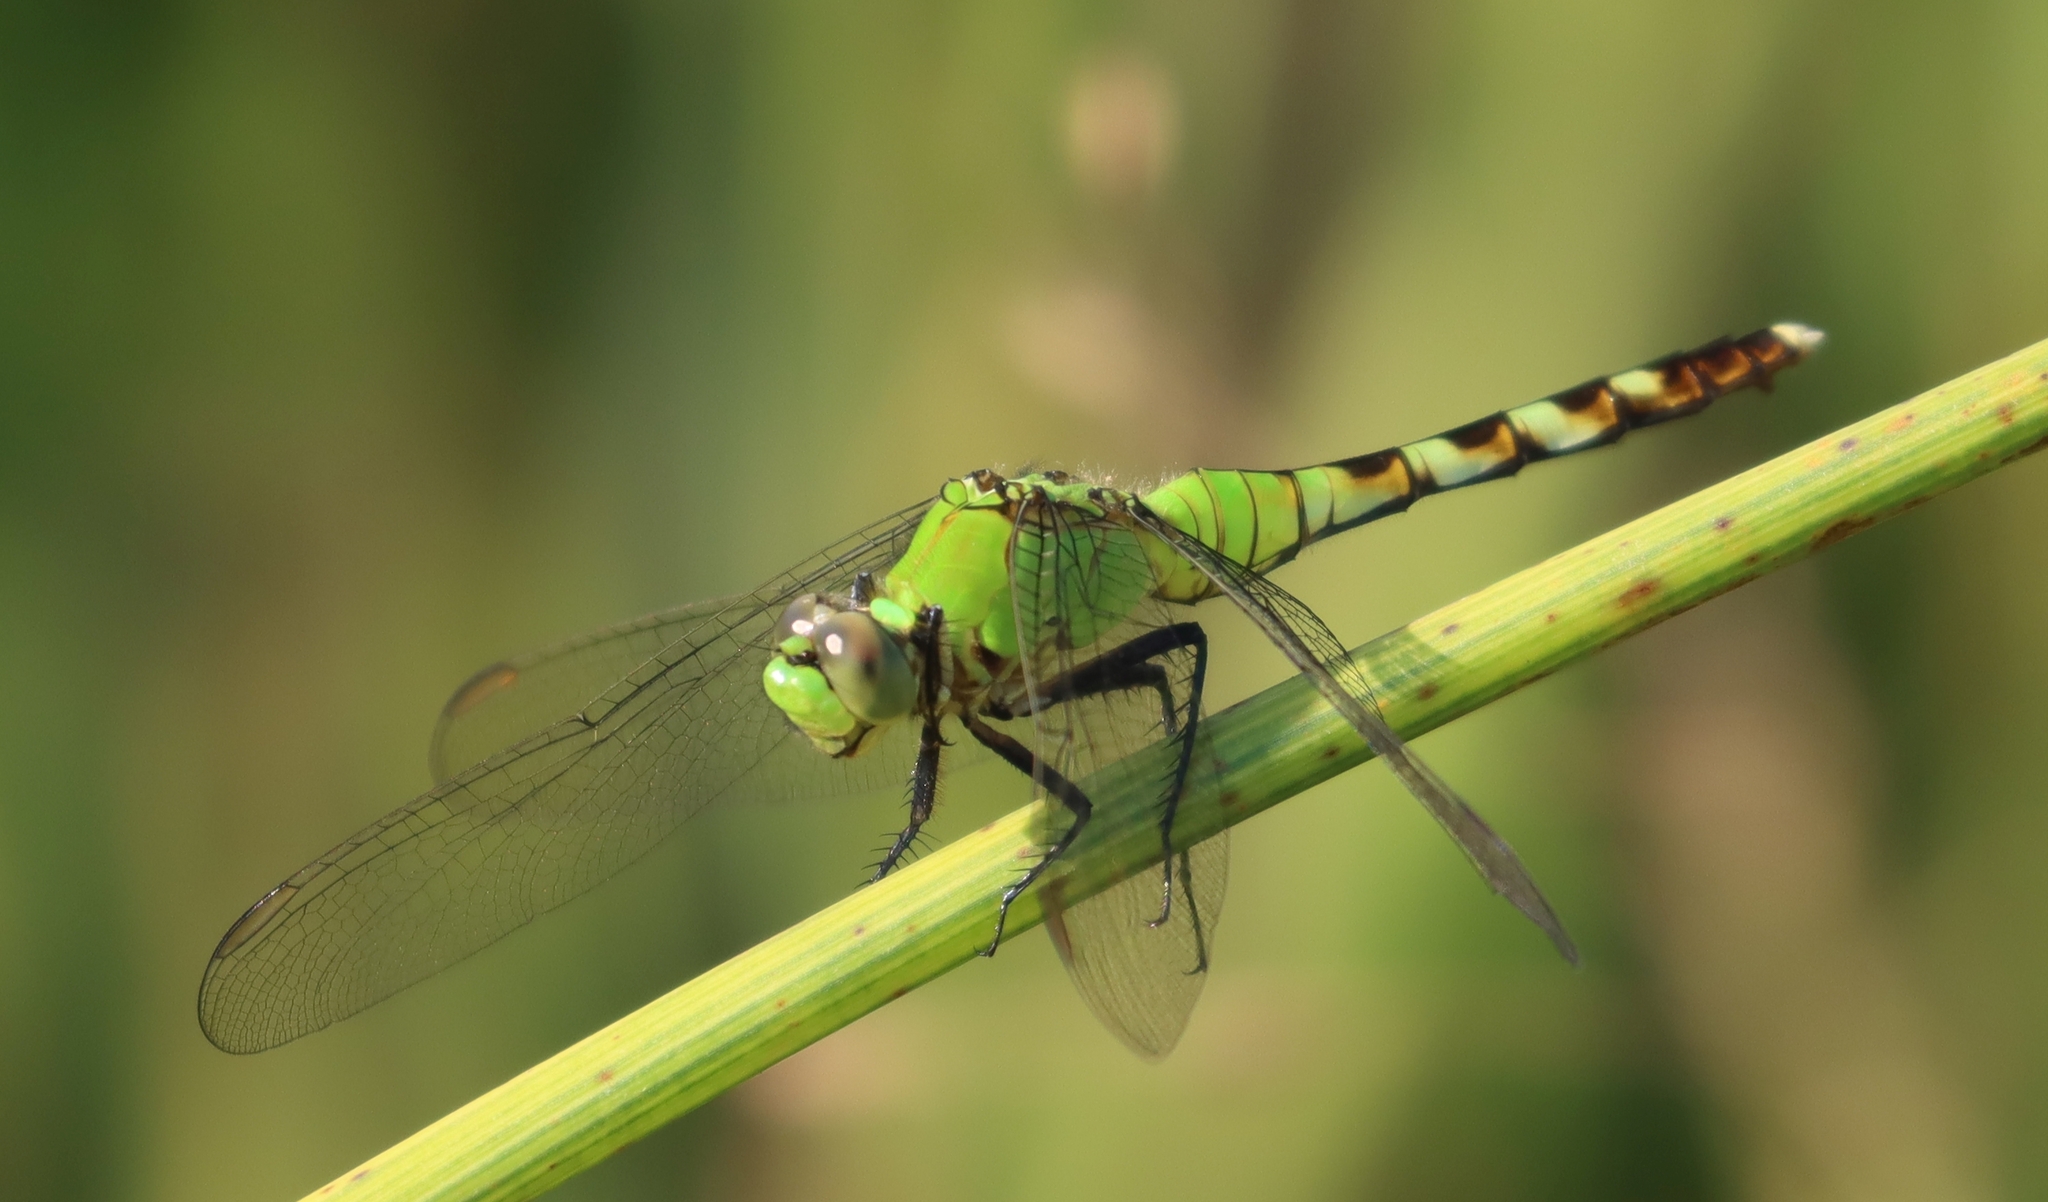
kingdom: Animalia
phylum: Arthropoda
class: Insecta
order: Odonata
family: Libellulidae
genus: Erythemis
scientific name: Erythemis simplicicollis
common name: Eastern pondhawk
